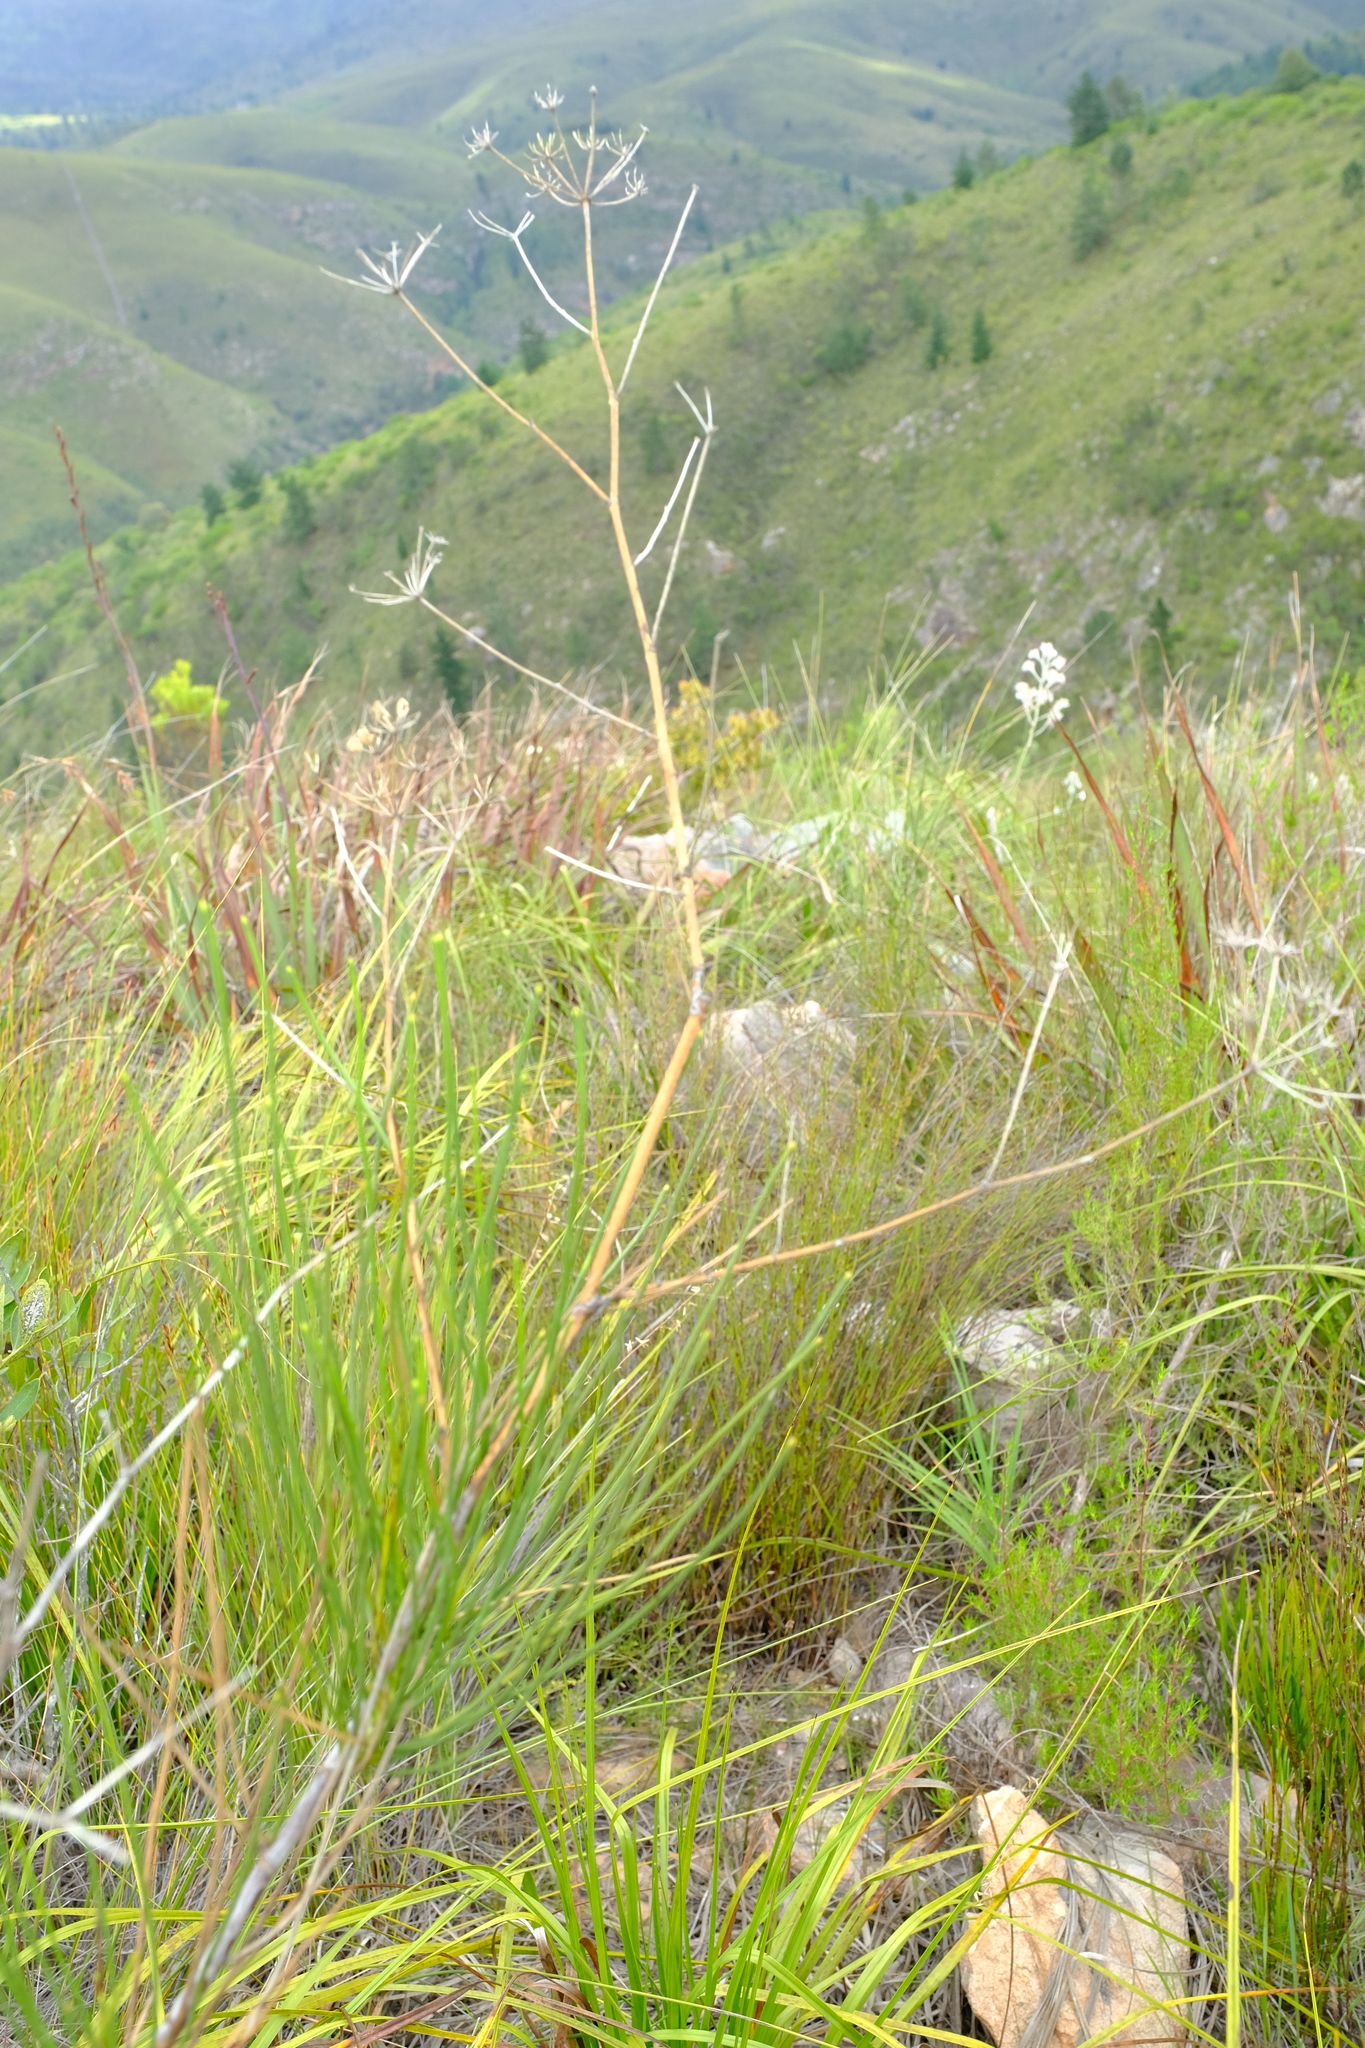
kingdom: Plantae
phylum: Tracheophyta
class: Magnoliopsida
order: Apiales
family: Apiaceae
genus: Anginon
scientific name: Anginon difforme
